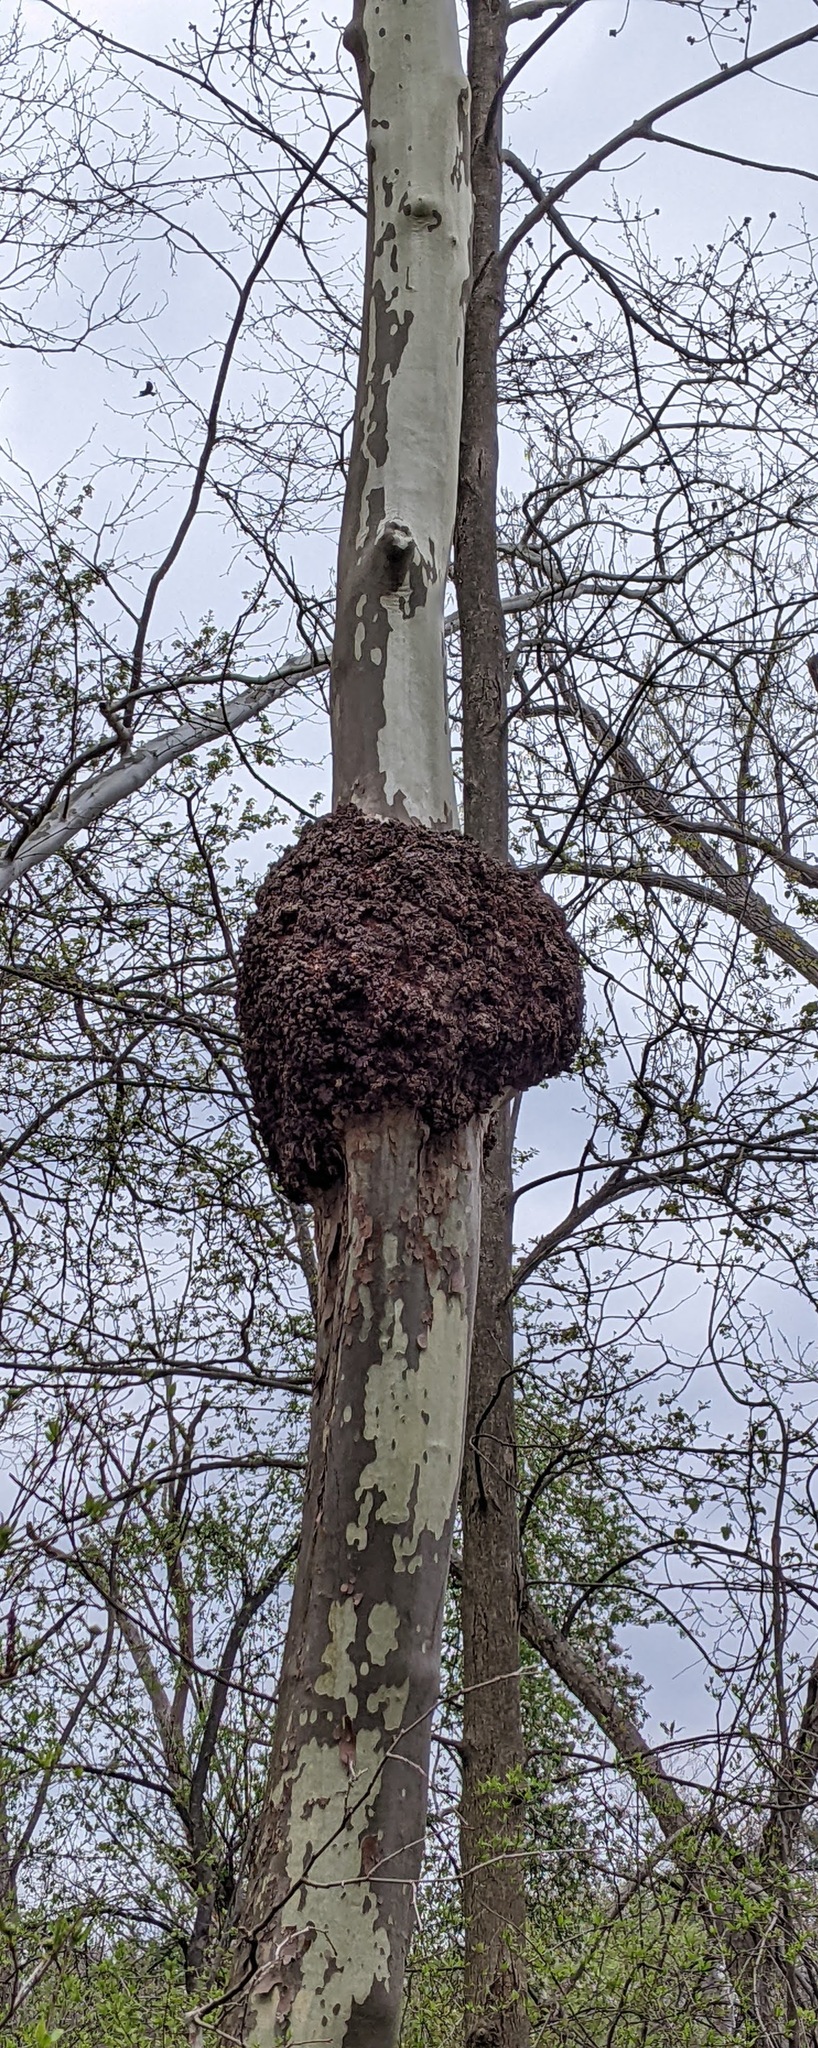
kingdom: Plantae
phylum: Tracheophyta
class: Magnoliopsida
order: Proteales
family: Platanaceae
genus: Platanus
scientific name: Platanus occidentalis
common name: American sycamore
